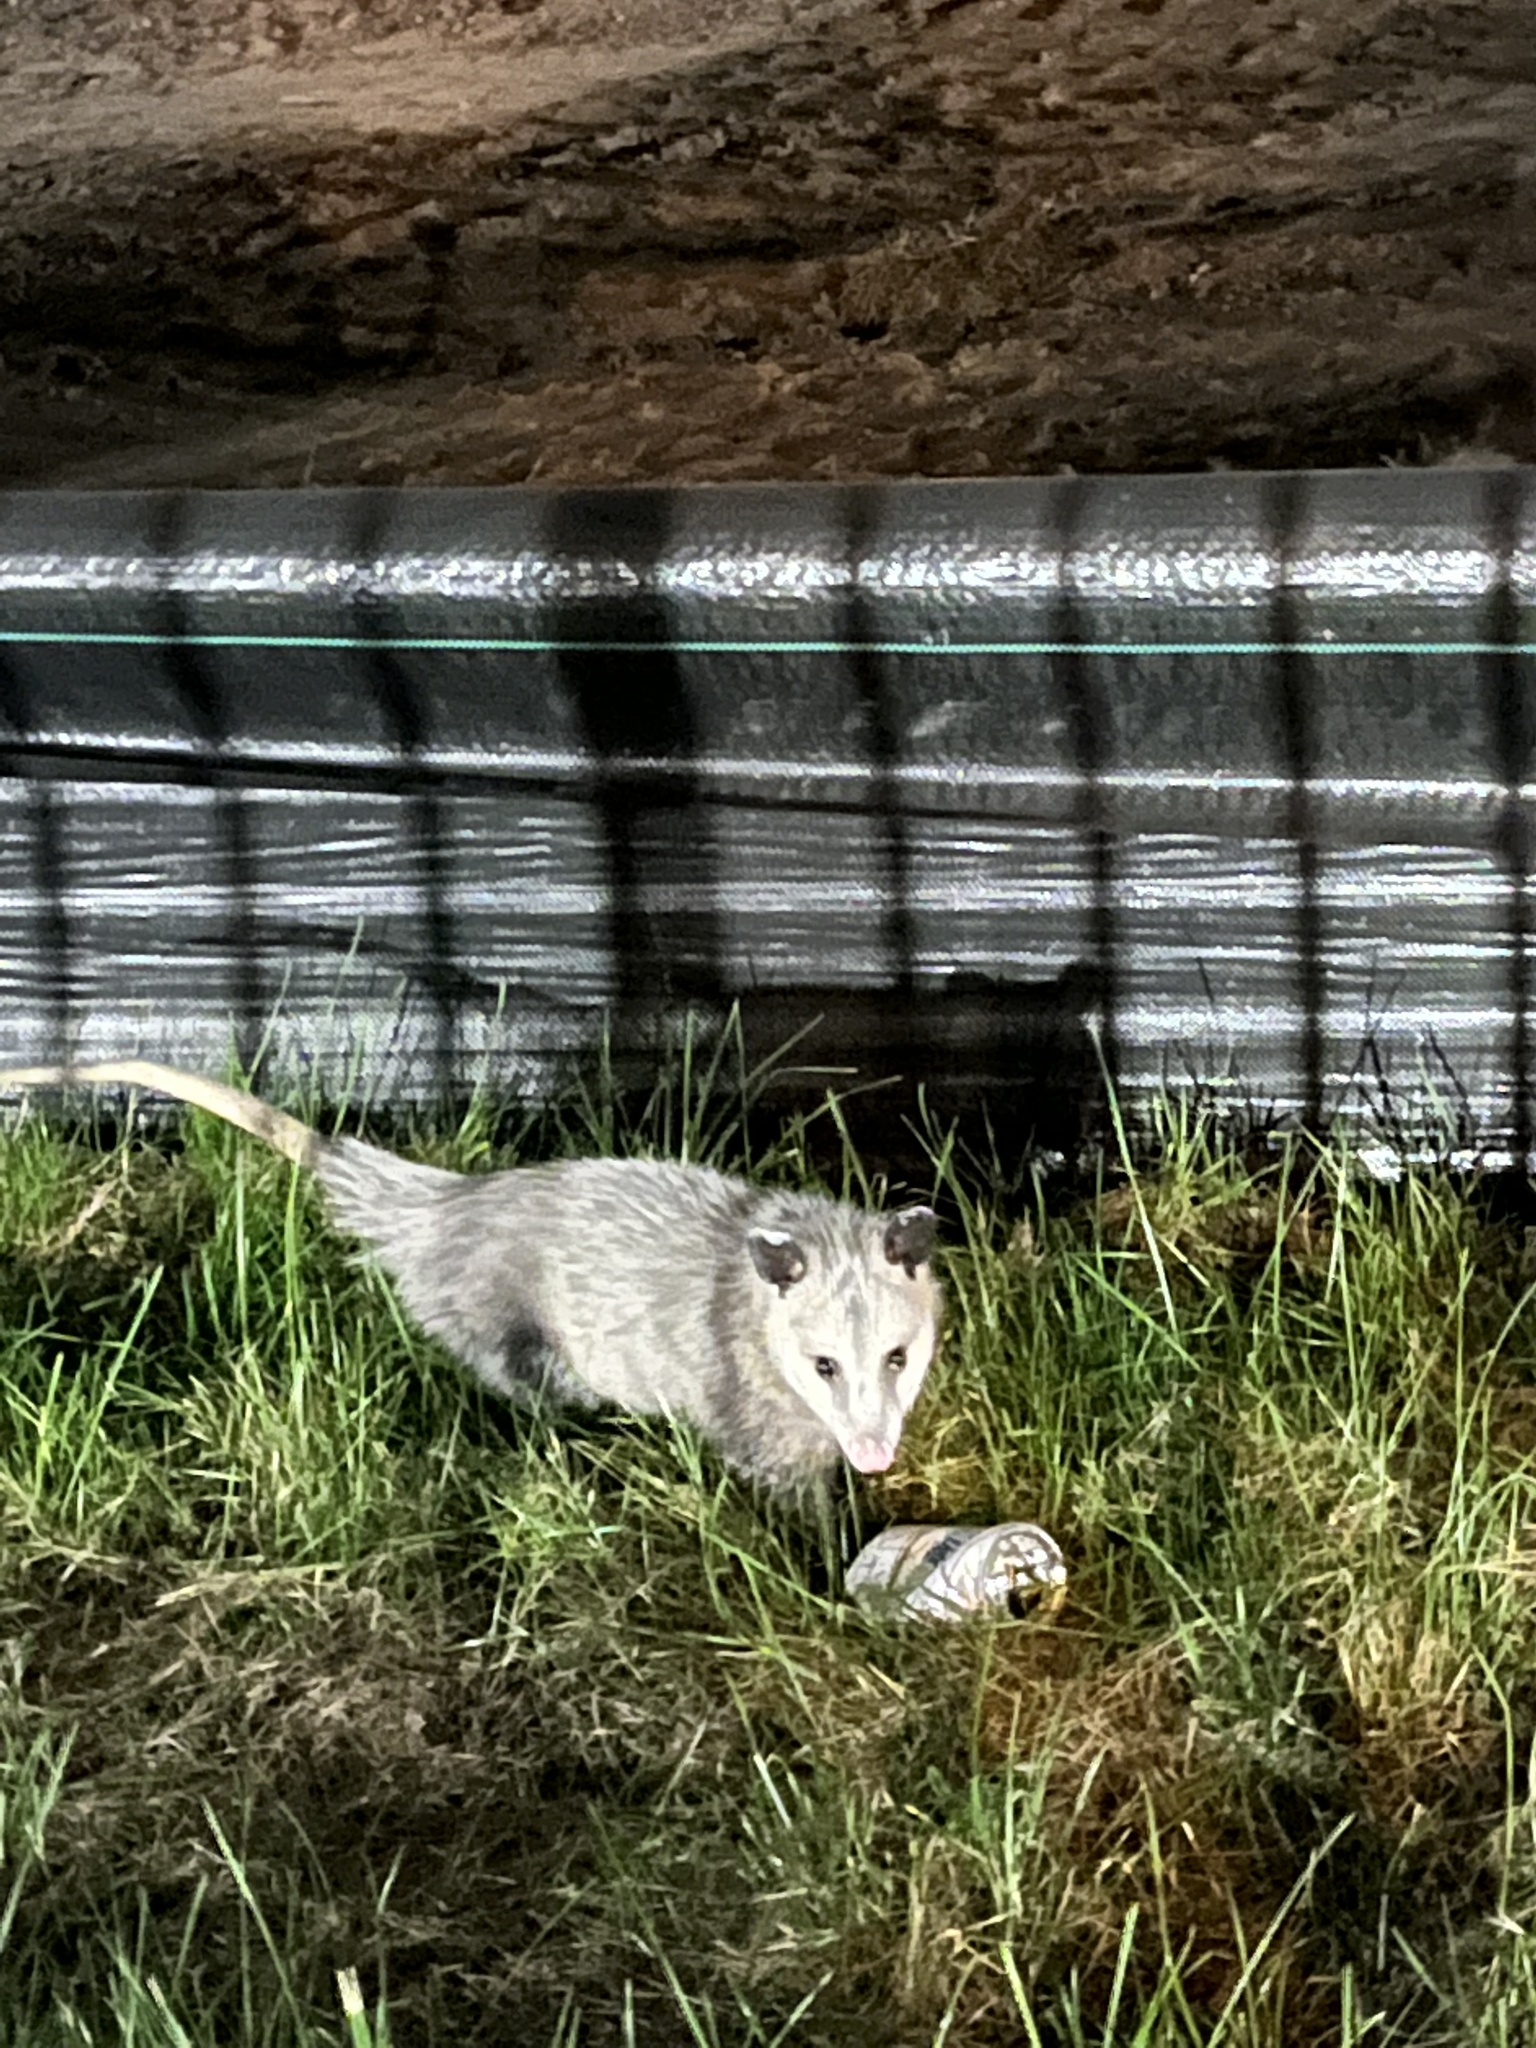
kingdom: Animalia
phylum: Chordata
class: Mammalia
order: Didelphimorphia
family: Didelphidae
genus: Didelphis
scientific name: Didelphis virginiana
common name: Virginia opossum
